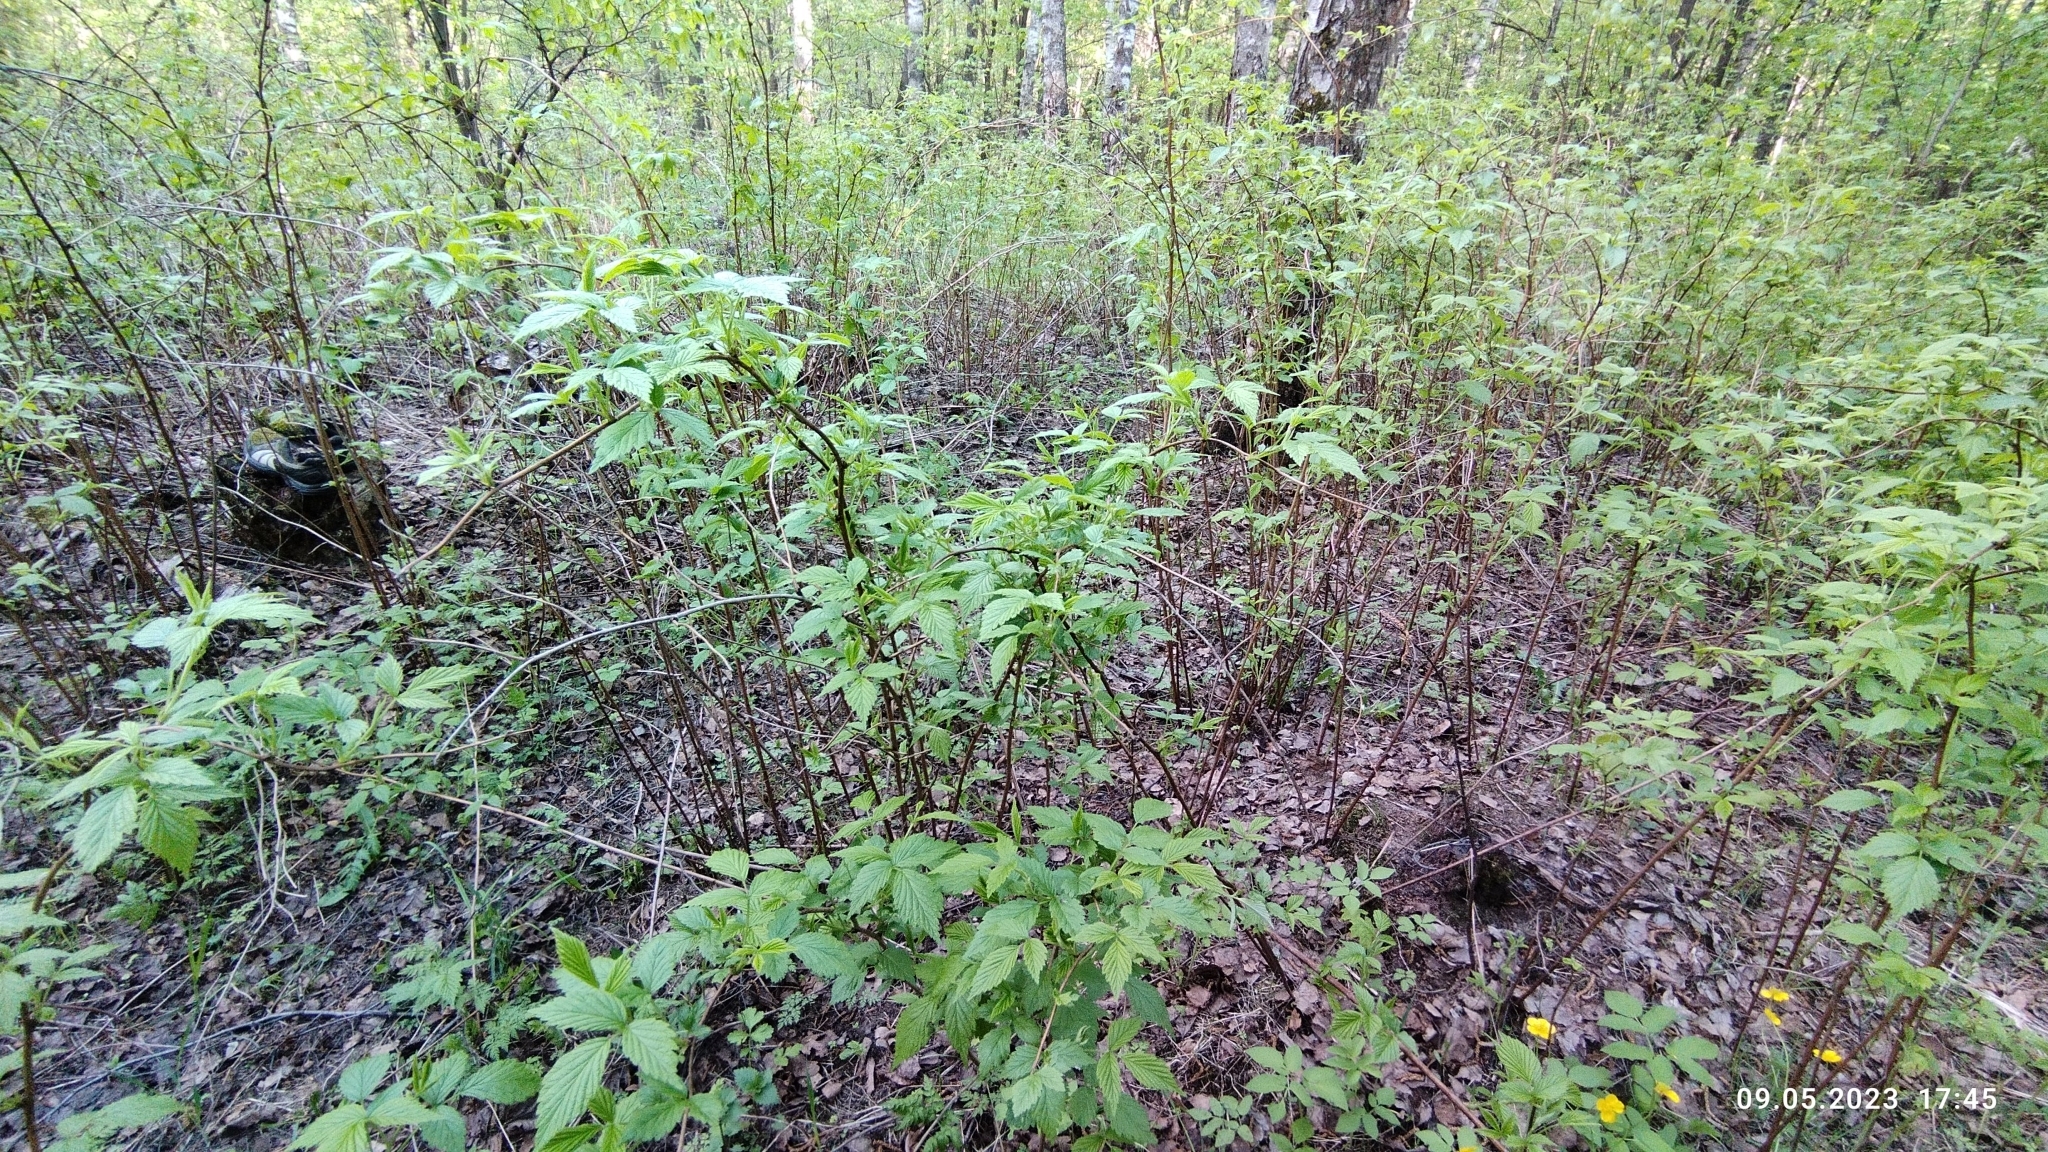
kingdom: Plantae
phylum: Tracheophyta
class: Magnoliopsida
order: Rosales
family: Rosaceae
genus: Rubus
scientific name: Rubus idaeus
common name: Raspberry
